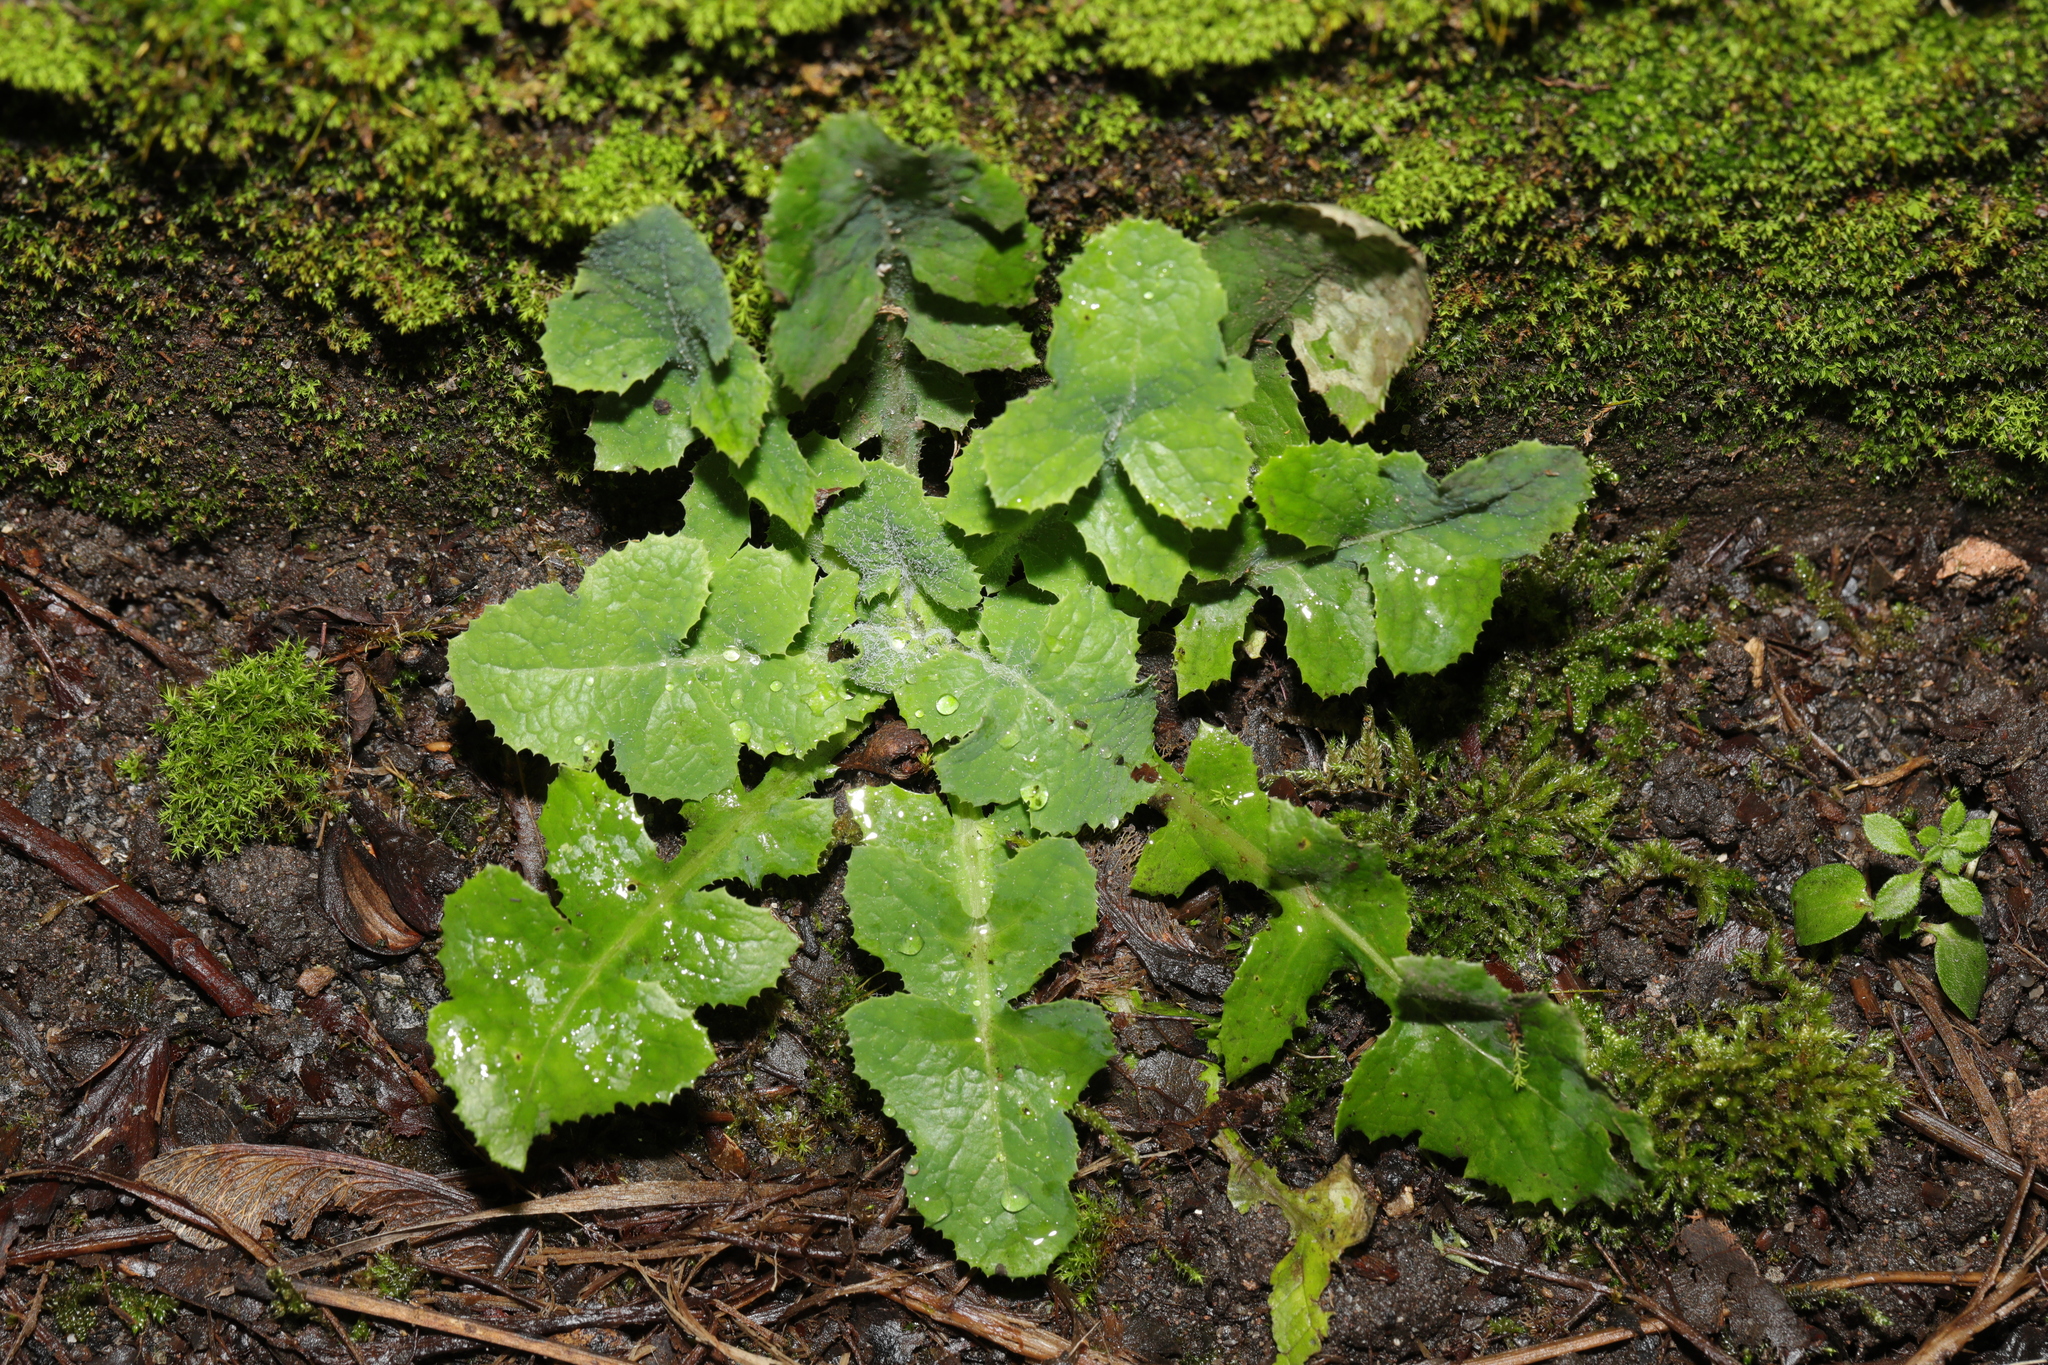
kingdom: Plantae
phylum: Tracheophyta
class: Magnoliopsida
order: Asterales
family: Asteraceae
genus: Sonchus
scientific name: Sonchus oleraceus
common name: Common sowthistle
